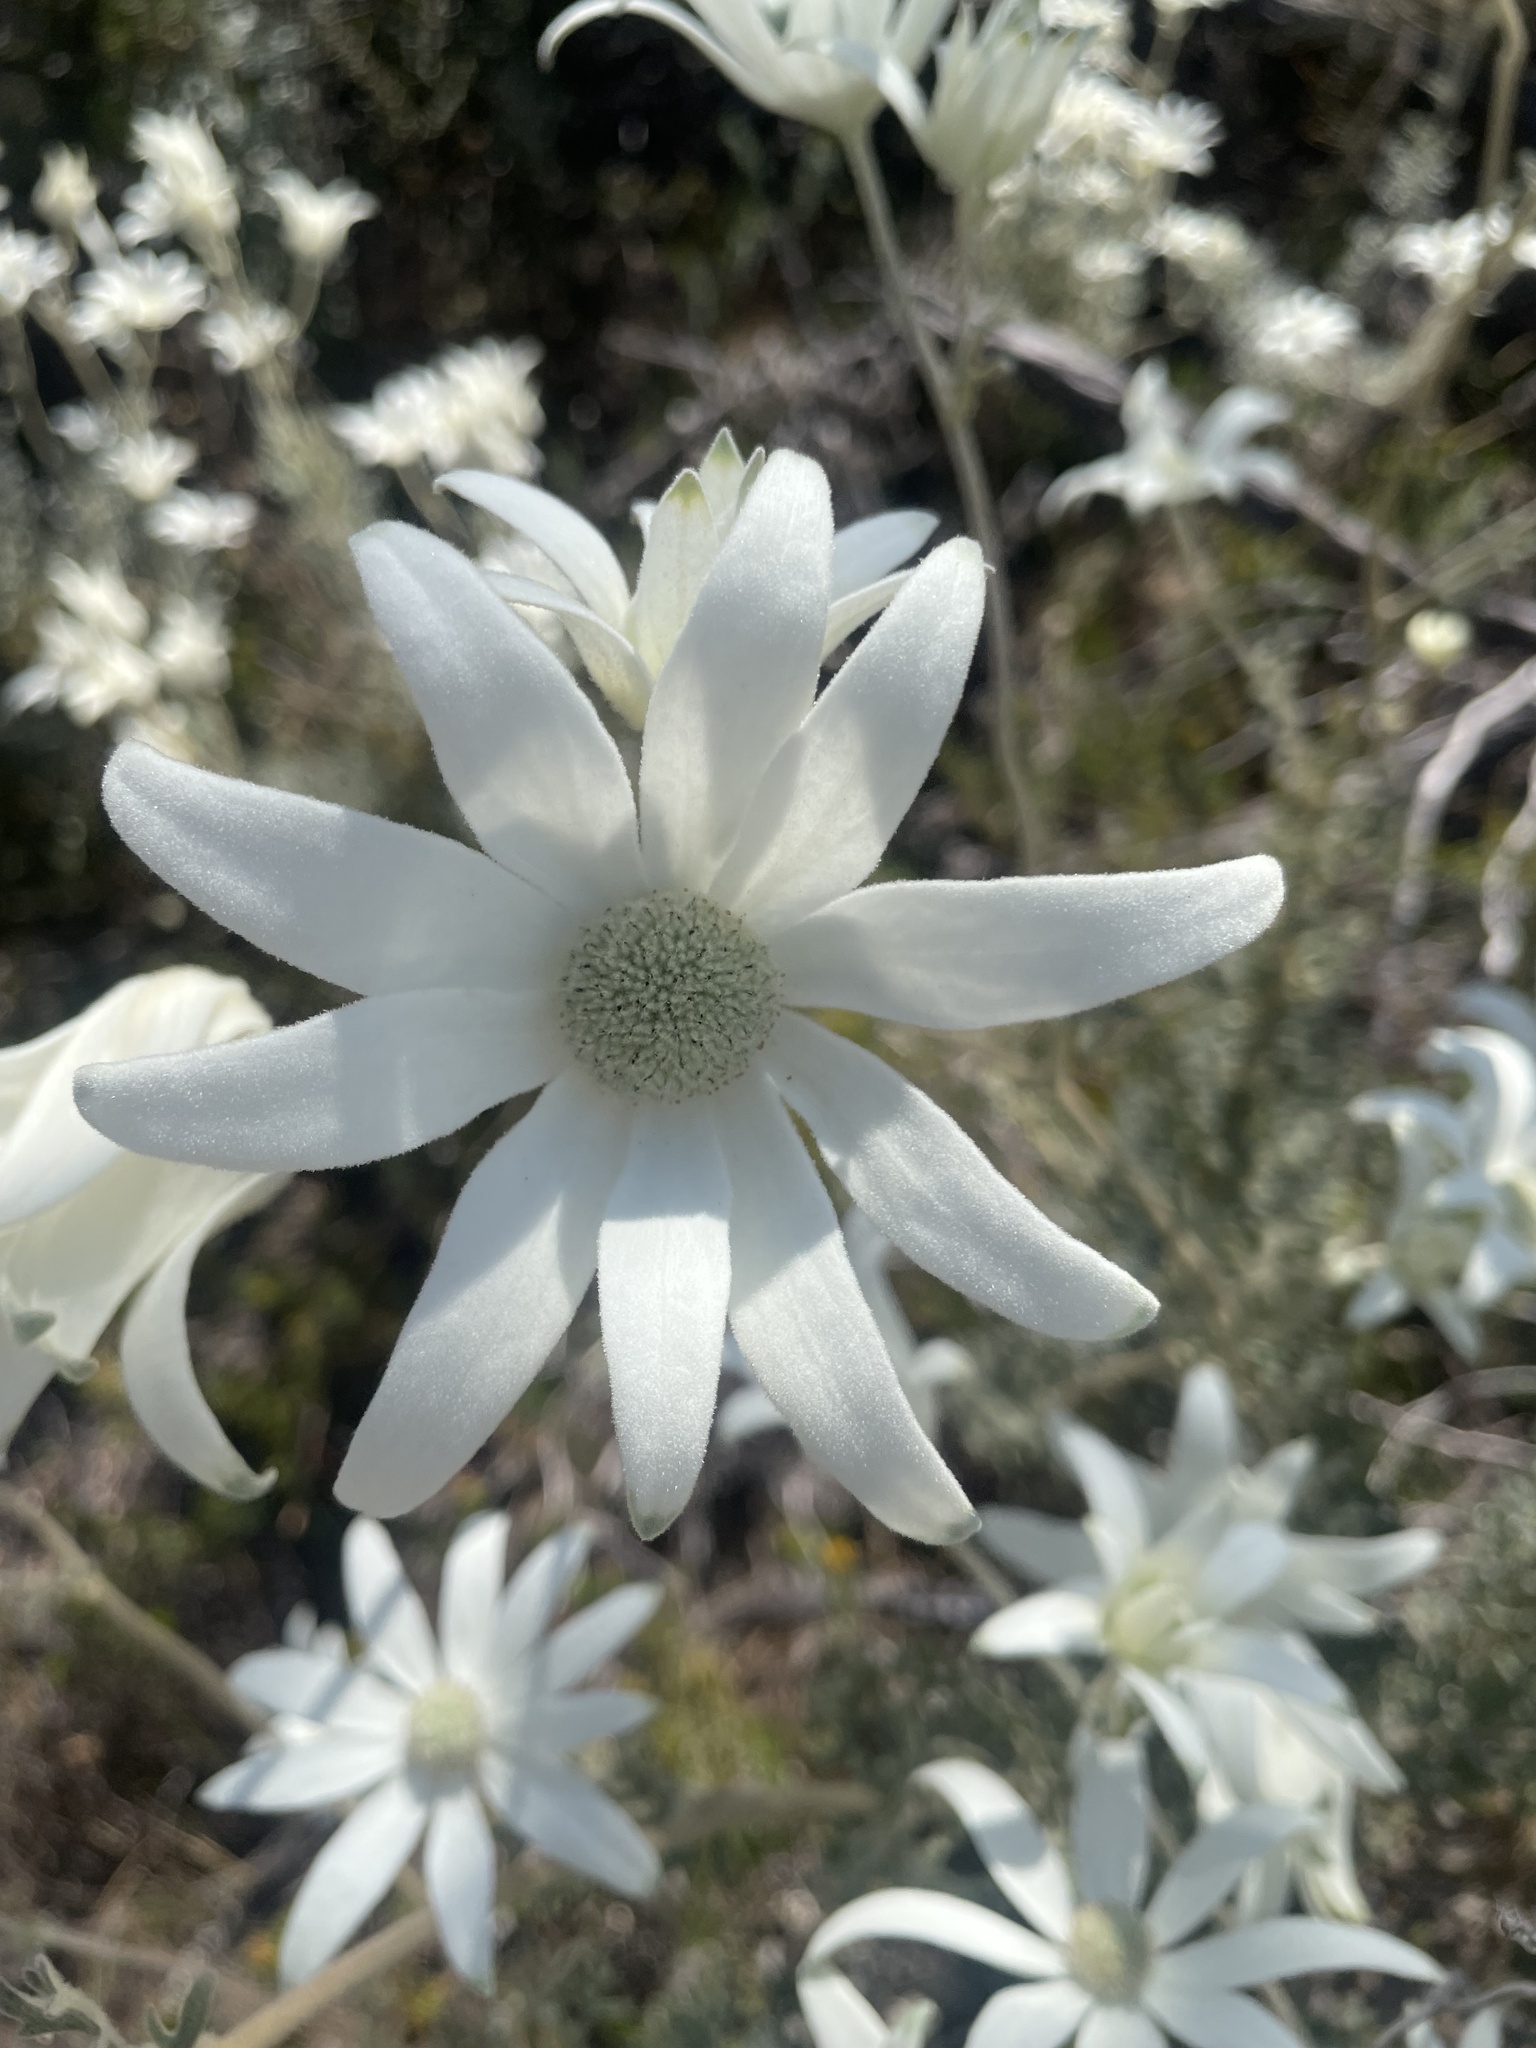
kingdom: Plantae
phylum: Tracheophyta
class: Magnoliopsida
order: Apiales
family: Apiaceae
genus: Actinotus
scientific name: Actinotus helianthi
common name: Flannel-flower
